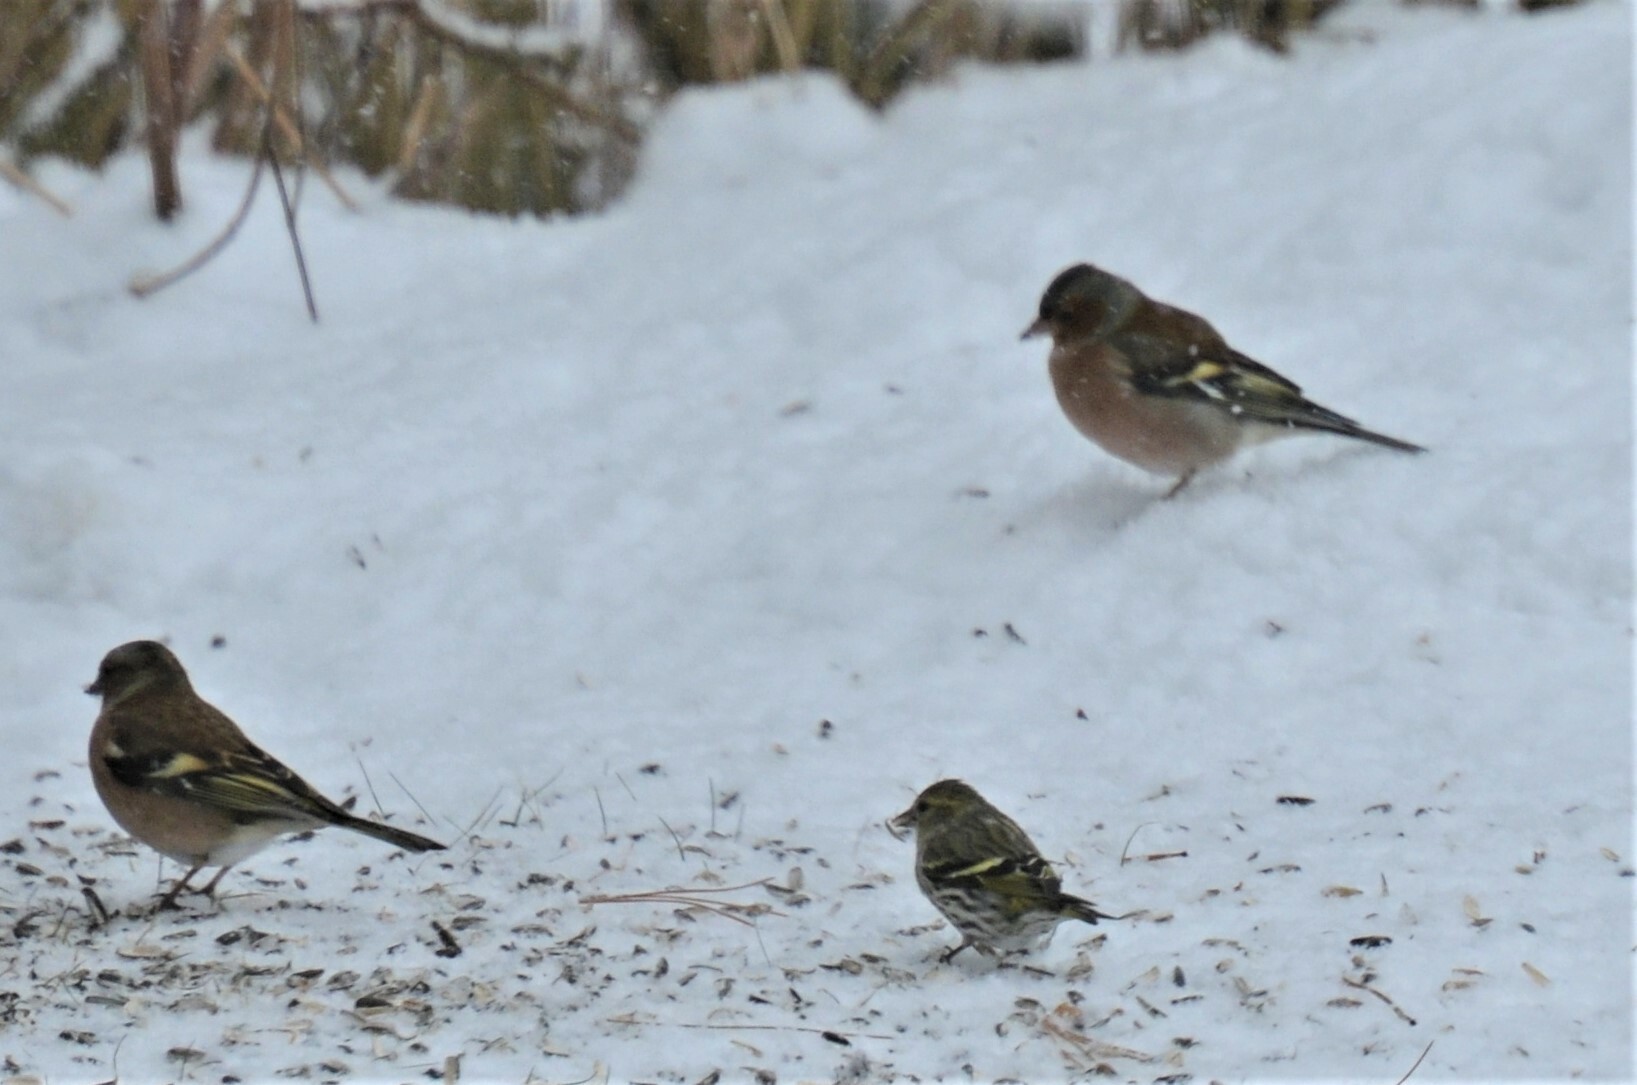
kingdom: Animalia
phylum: Chordata
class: Aves
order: Passeriformes
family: Fringillidae
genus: Fringilla
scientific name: Fringilla coelebs
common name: Common chaffinch
